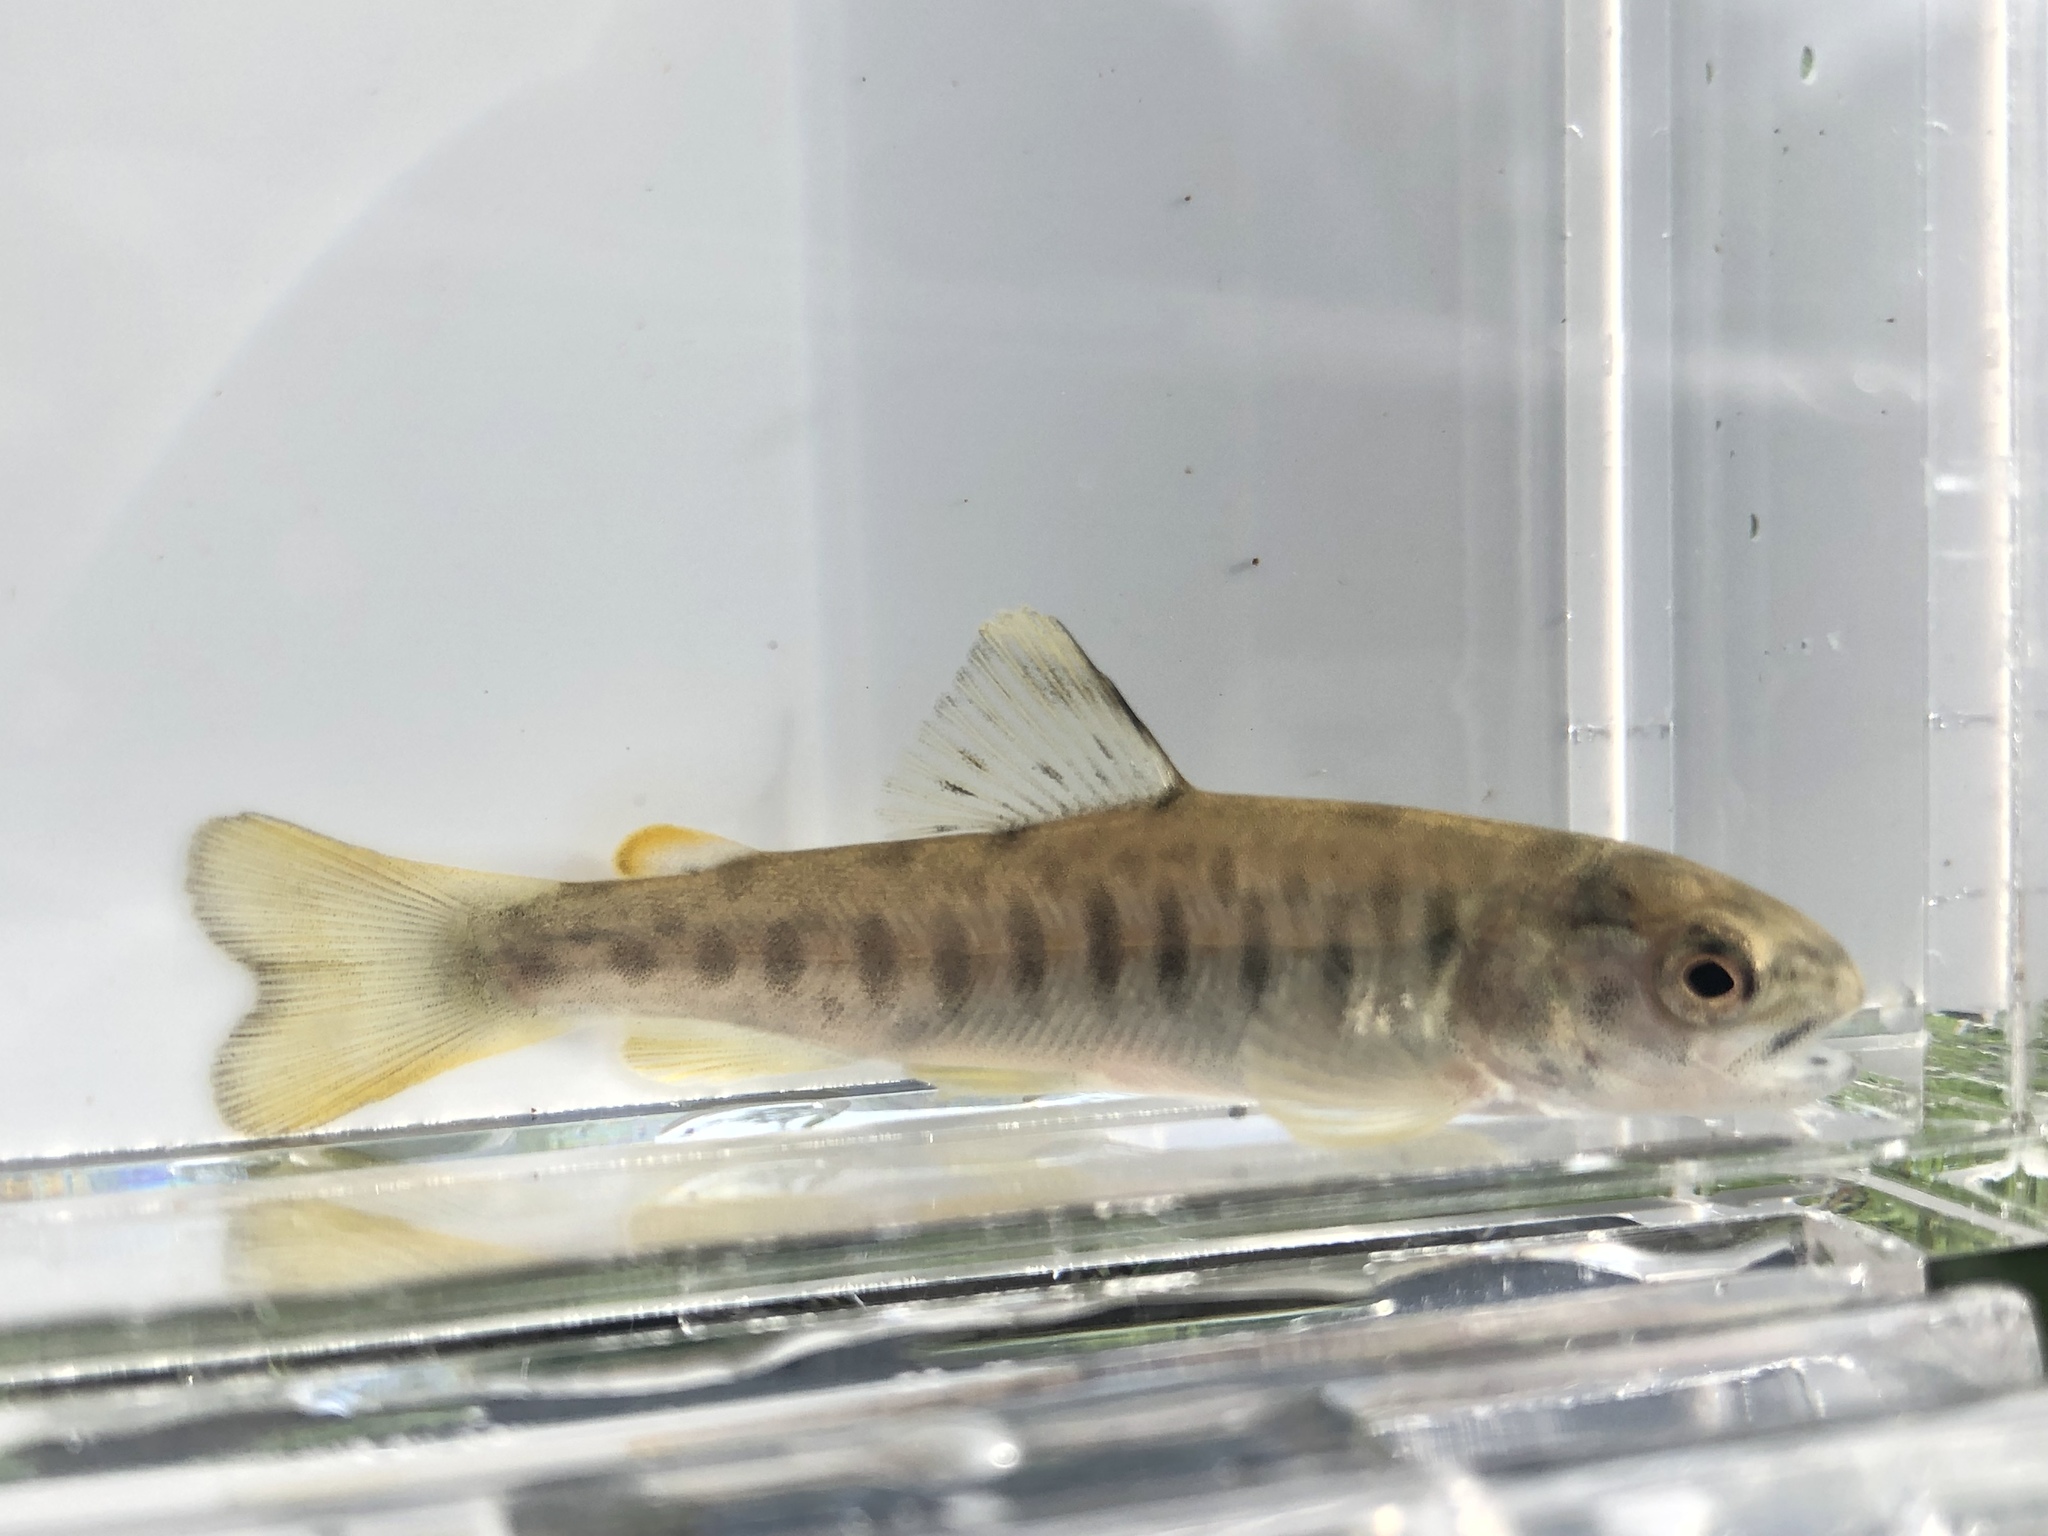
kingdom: Animalia
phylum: Chordata
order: Salmoniformes
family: Salmonidae
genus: Salmo
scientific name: Salmo trutta
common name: Brown trout
